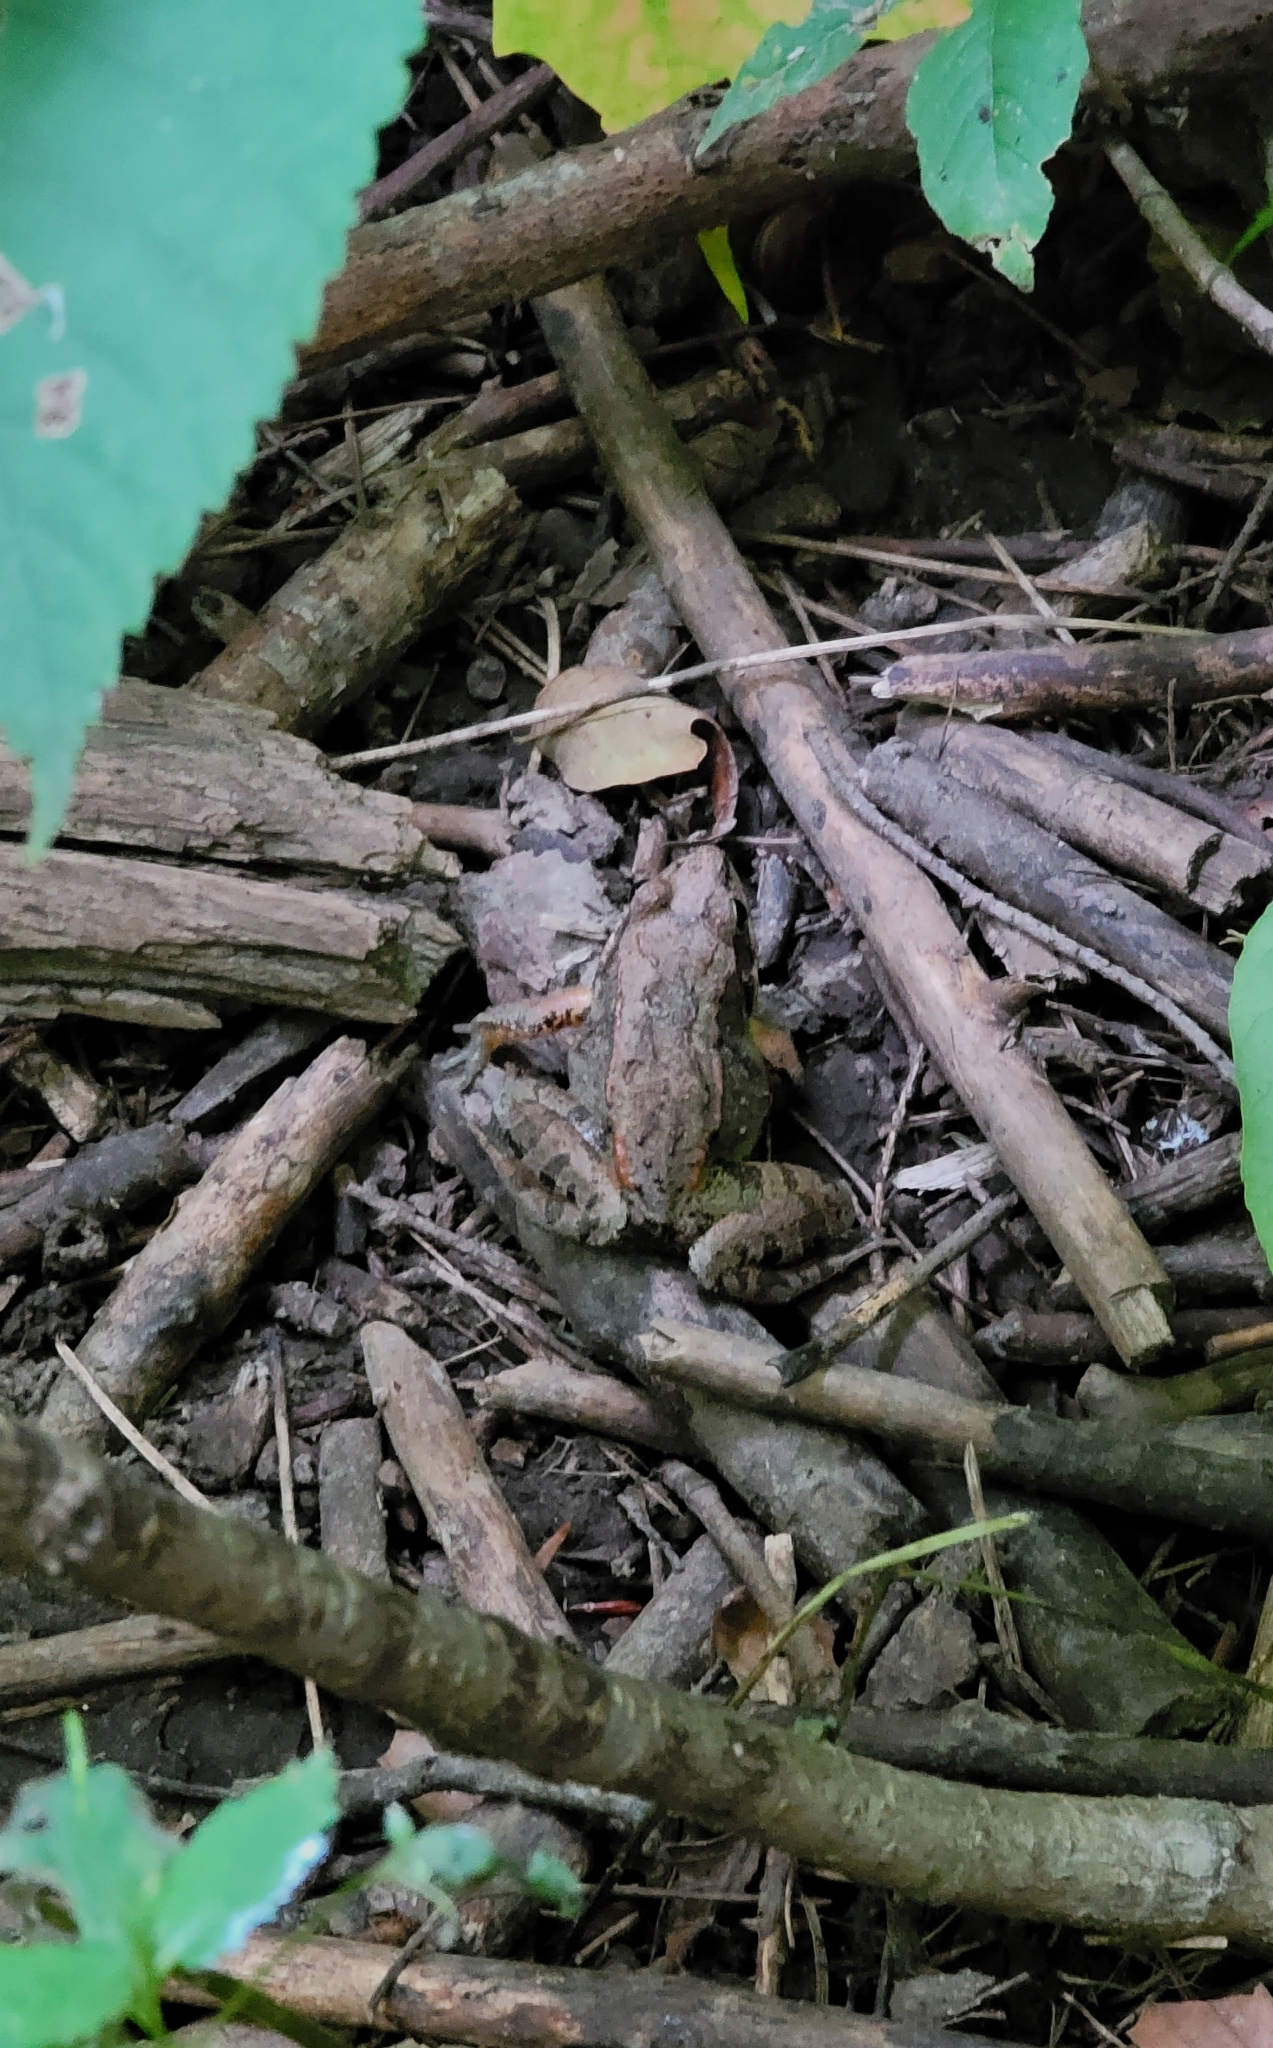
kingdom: Animalia
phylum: Chordata
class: Amphibia
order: Anura
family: Ranidae
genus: Lithobates
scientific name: Lithobates sylvaticus
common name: Wood frog
